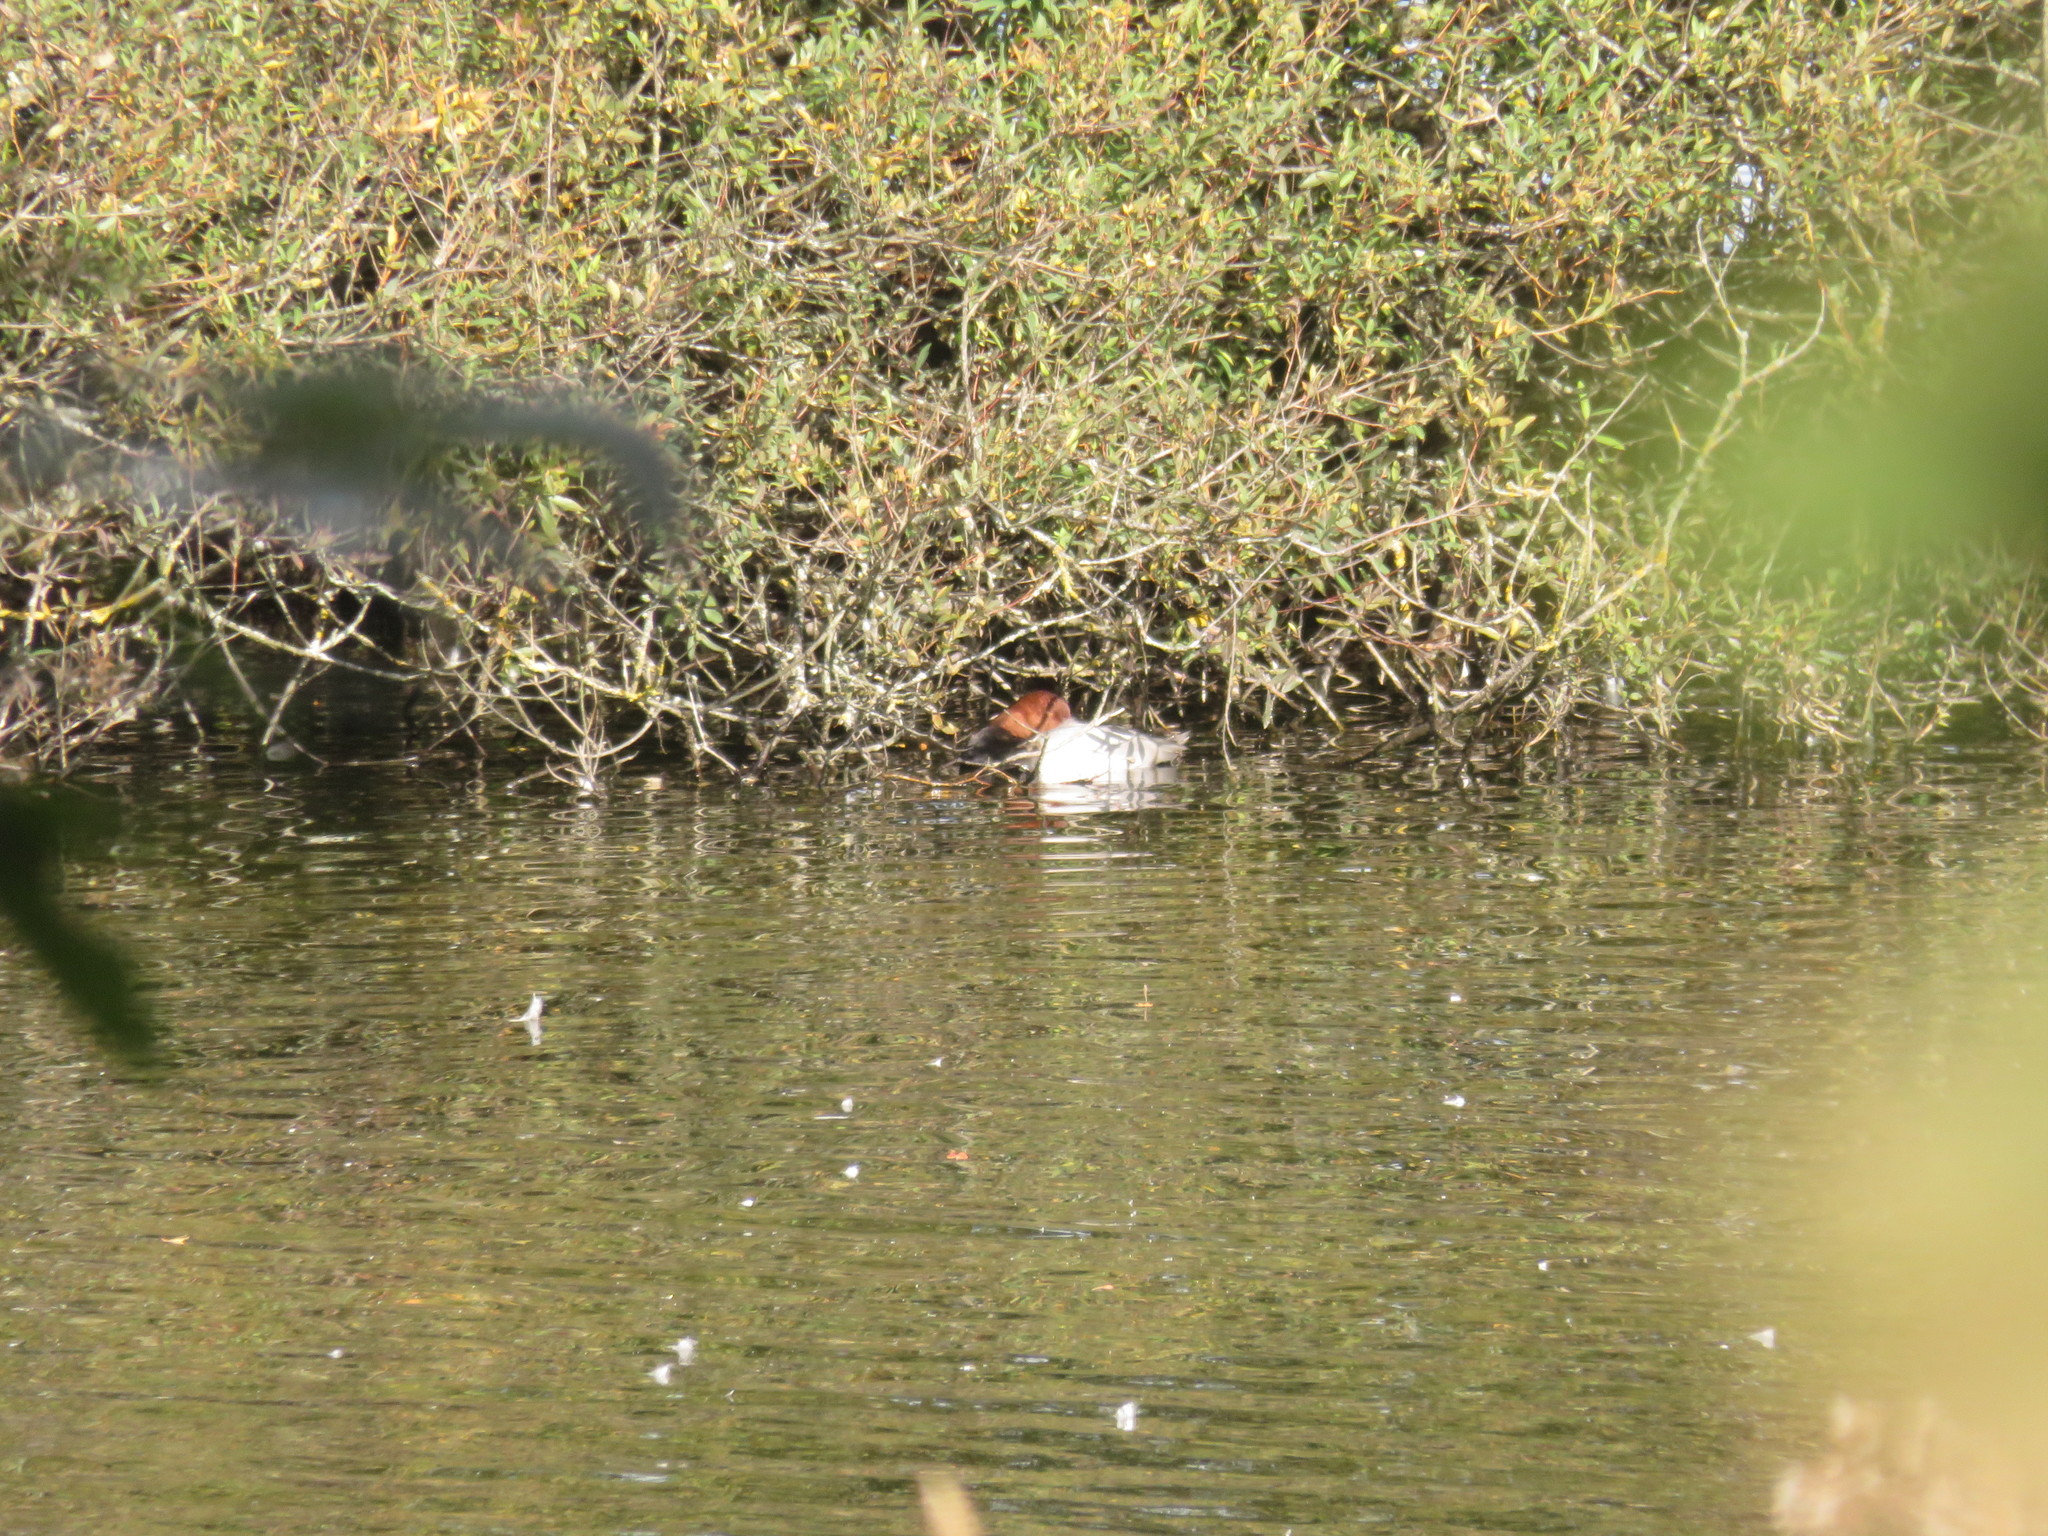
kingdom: Animalia
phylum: Chordata
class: Aves
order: Anseriformes
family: Anatidae
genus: Aythya
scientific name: Aythya ferina
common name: Common pochard
